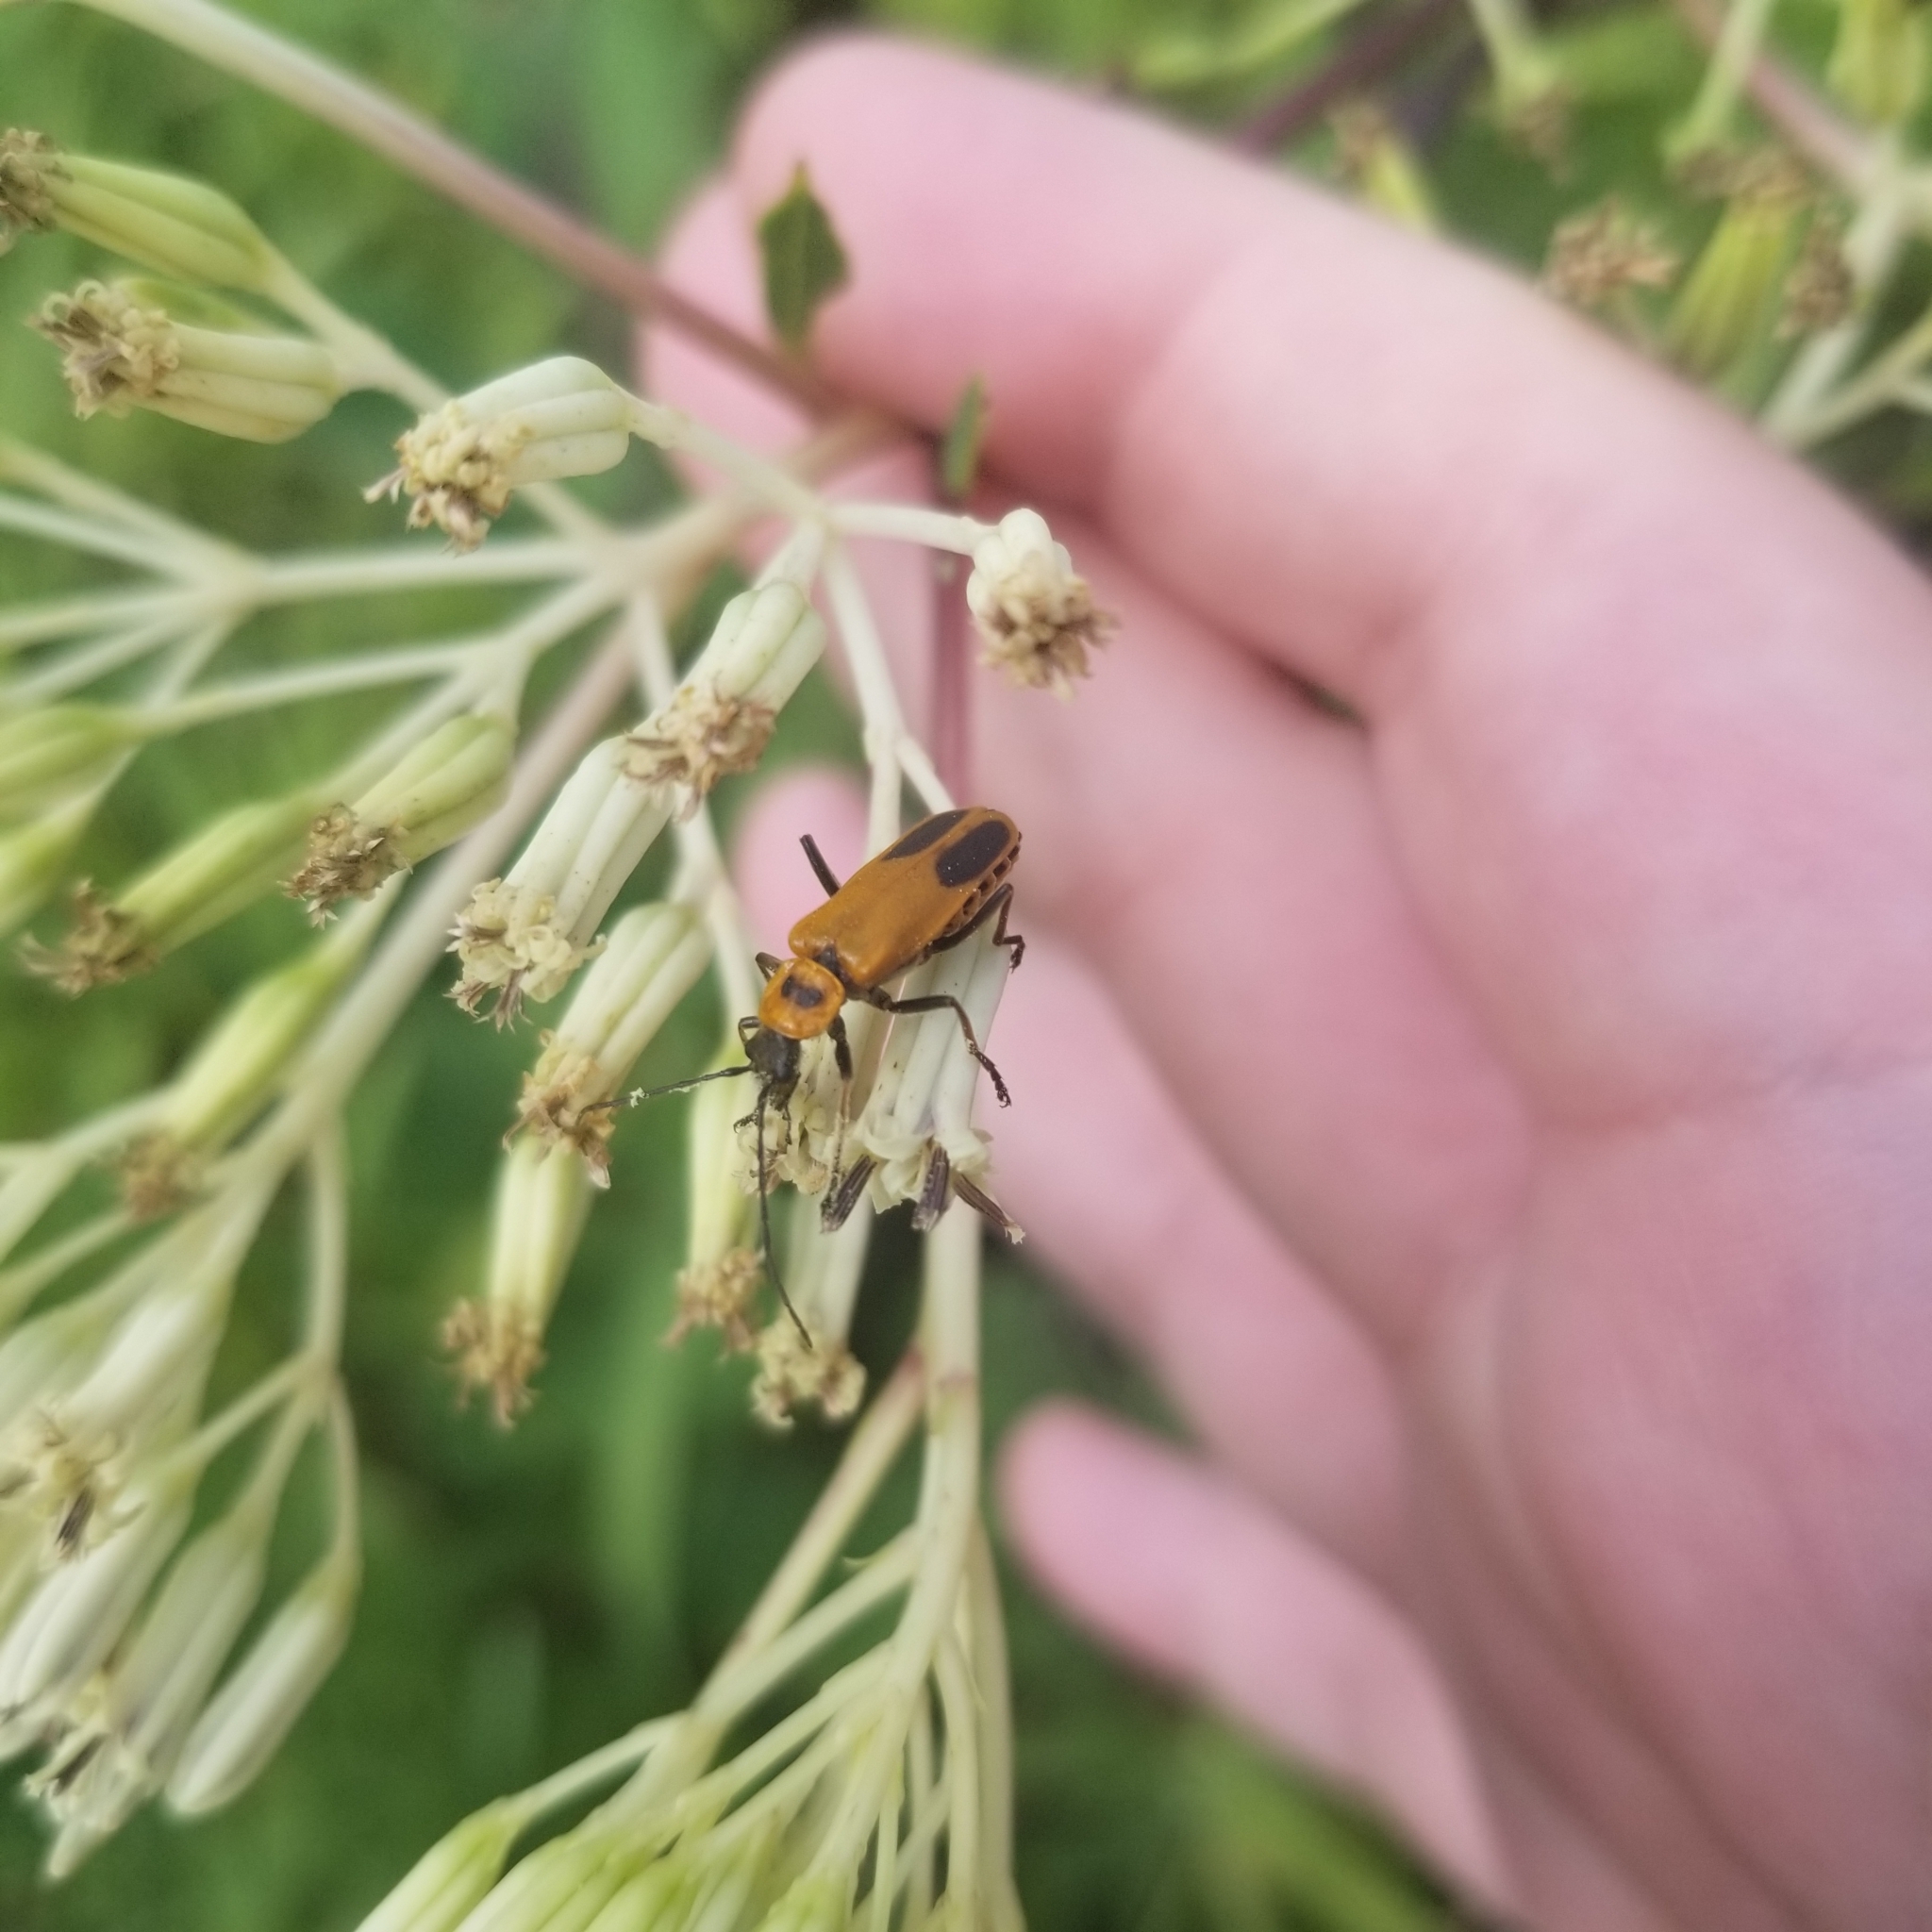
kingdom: Animalia
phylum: Arthropoda
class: Insecta
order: Coleoptera
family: Cantharidae
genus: Chauliognathus
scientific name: Chauliognathus pensylvanicus
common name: Goldenrod soldier beetle
